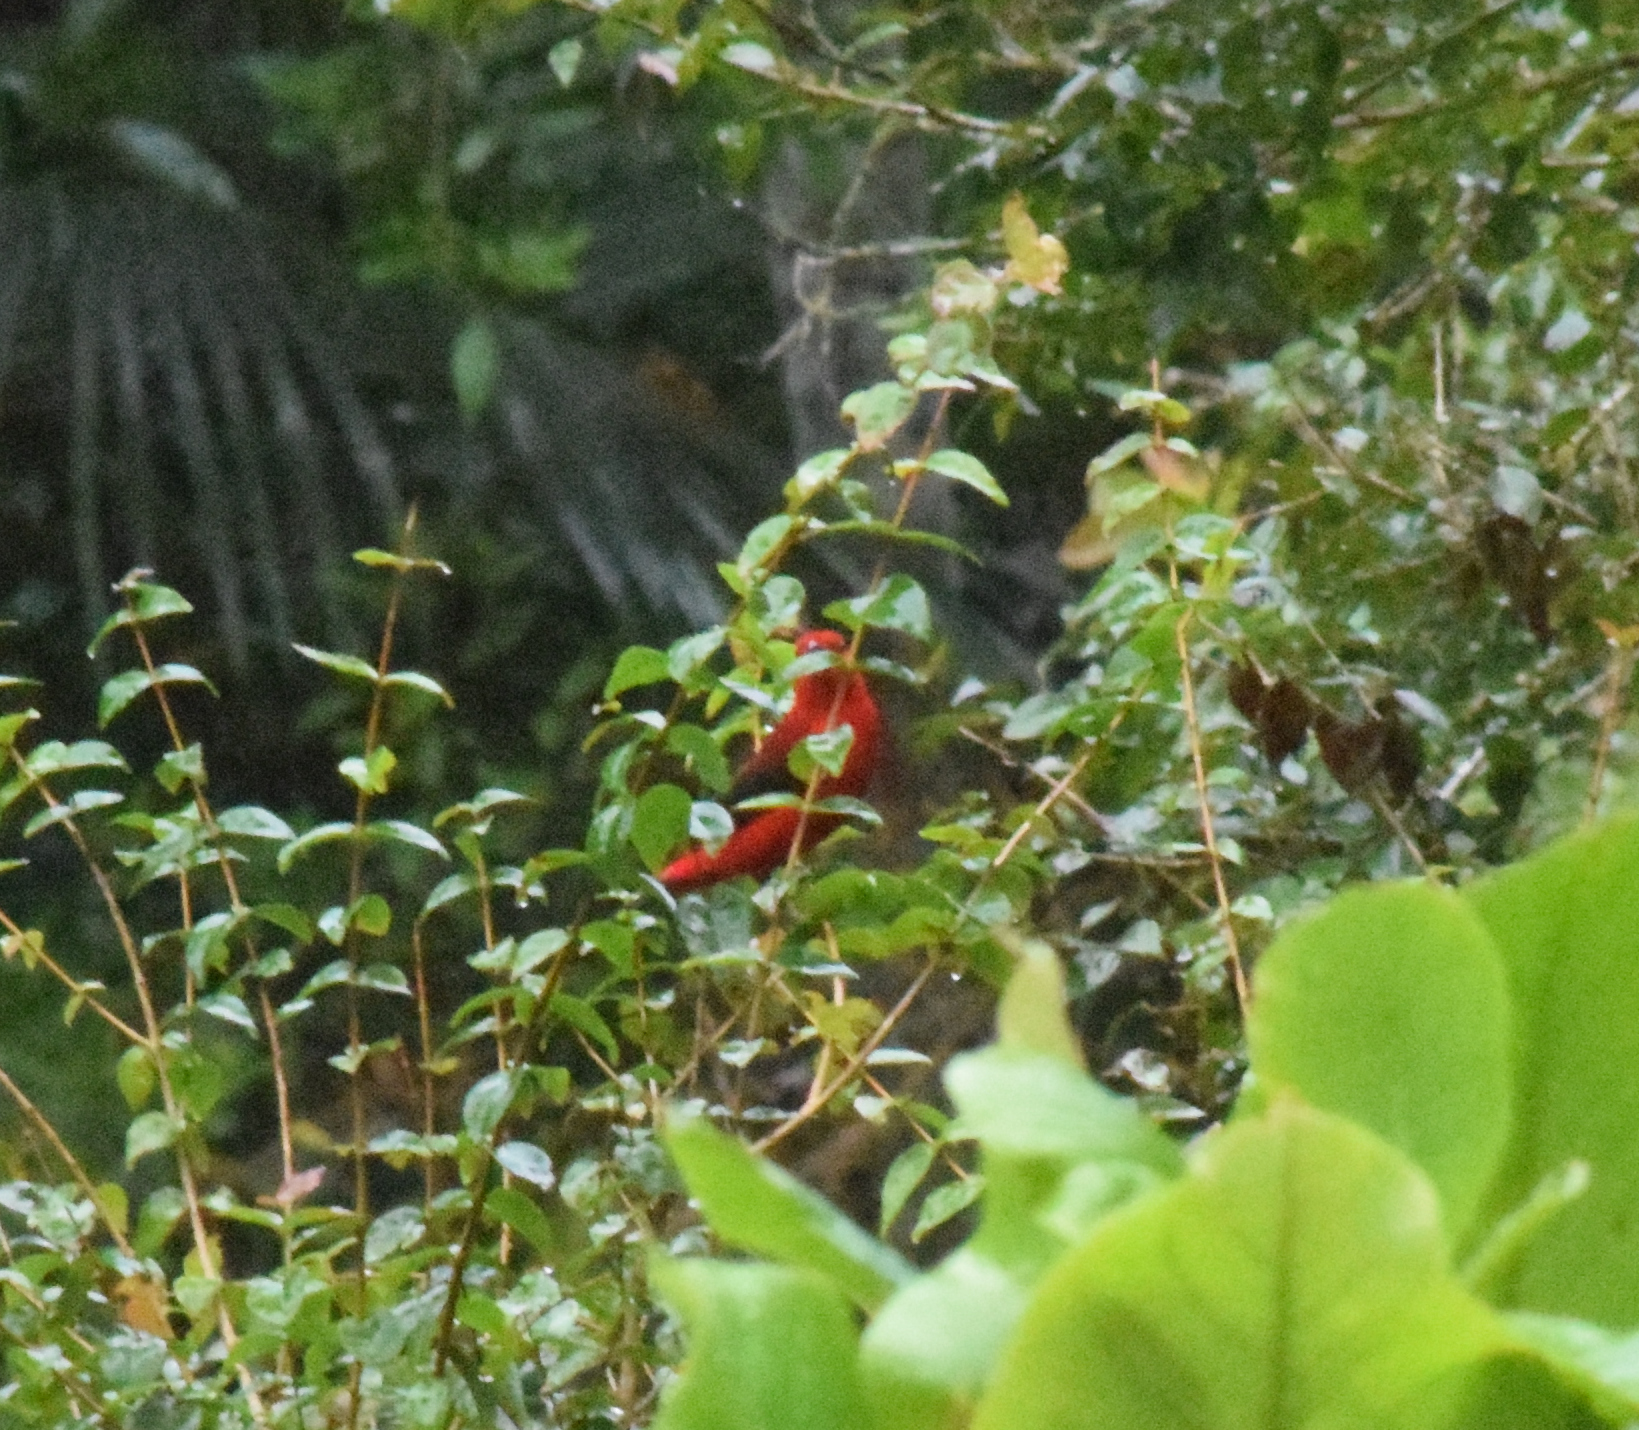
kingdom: Animalia
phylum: Chordata
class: Aves
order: Passeriformes
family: Thraupidae
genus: Ramphocelus
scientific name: Ramphocelus bresilia
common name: Brazilian tanager
